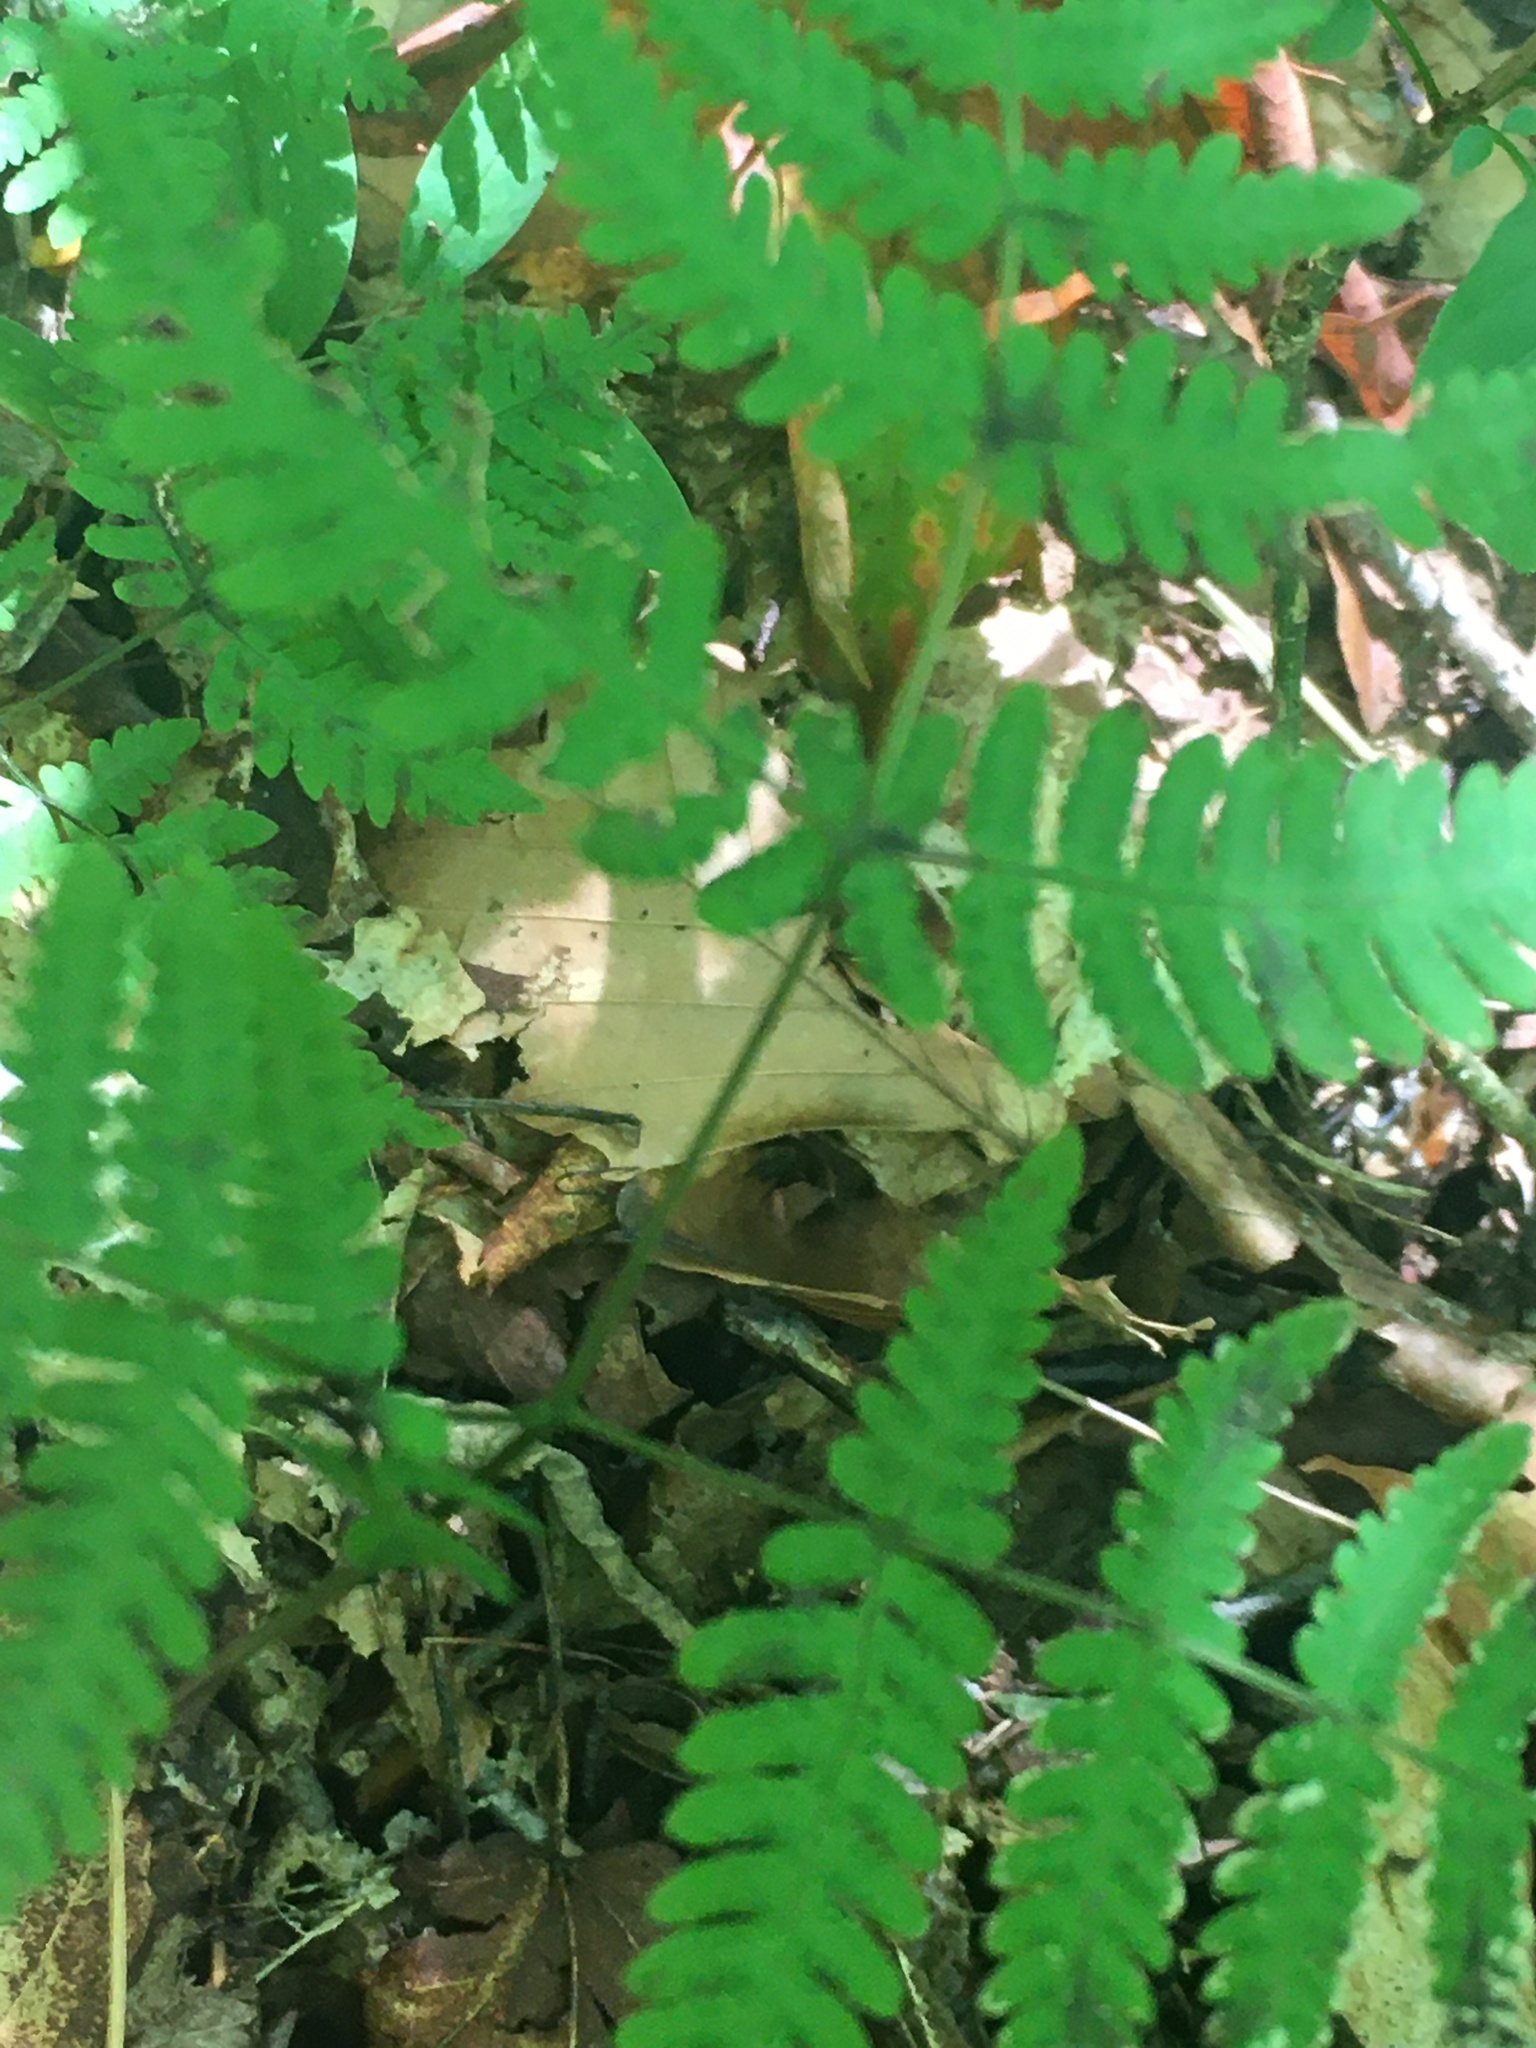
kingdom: Plantae
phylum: Tracheophyta
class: Polypodiopsida
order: Polypodiales
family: Cystopteridaceae
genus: Gymnocarpium
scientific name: Gymnocarpium dryopteris
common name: Oak fern
